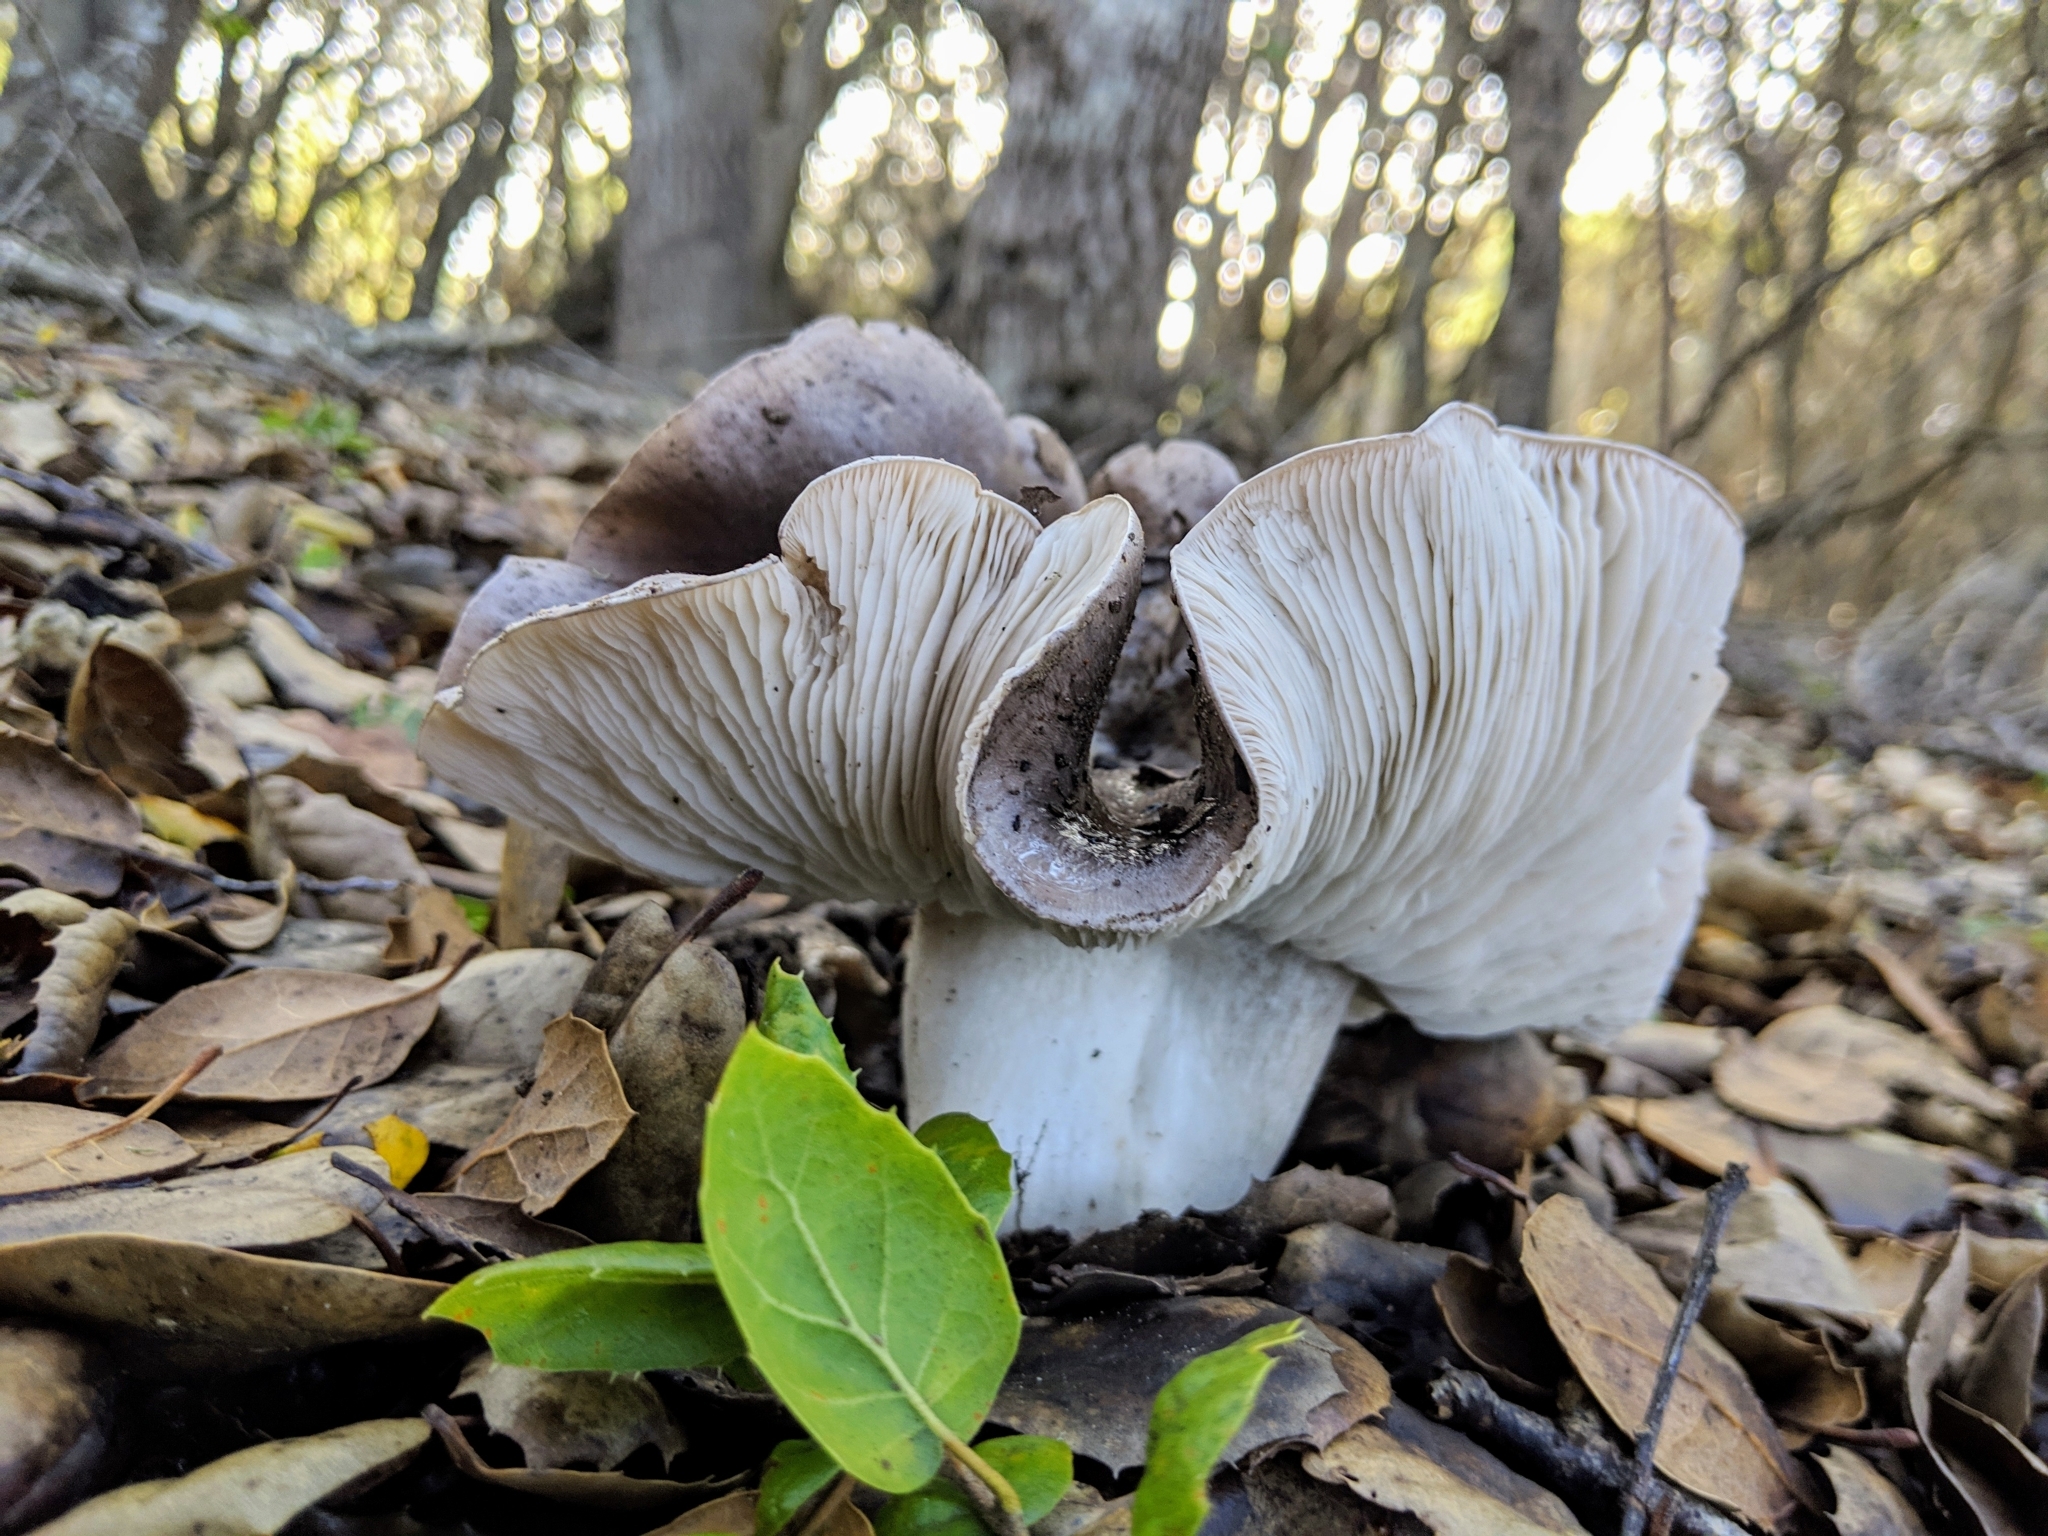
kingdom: Fungi
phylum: Basidiomycota
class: Agaricomycetes
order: Agaricales
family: Tricholomataceae
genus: Tricholoma
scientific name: Tricholoma griseoviolaceum
